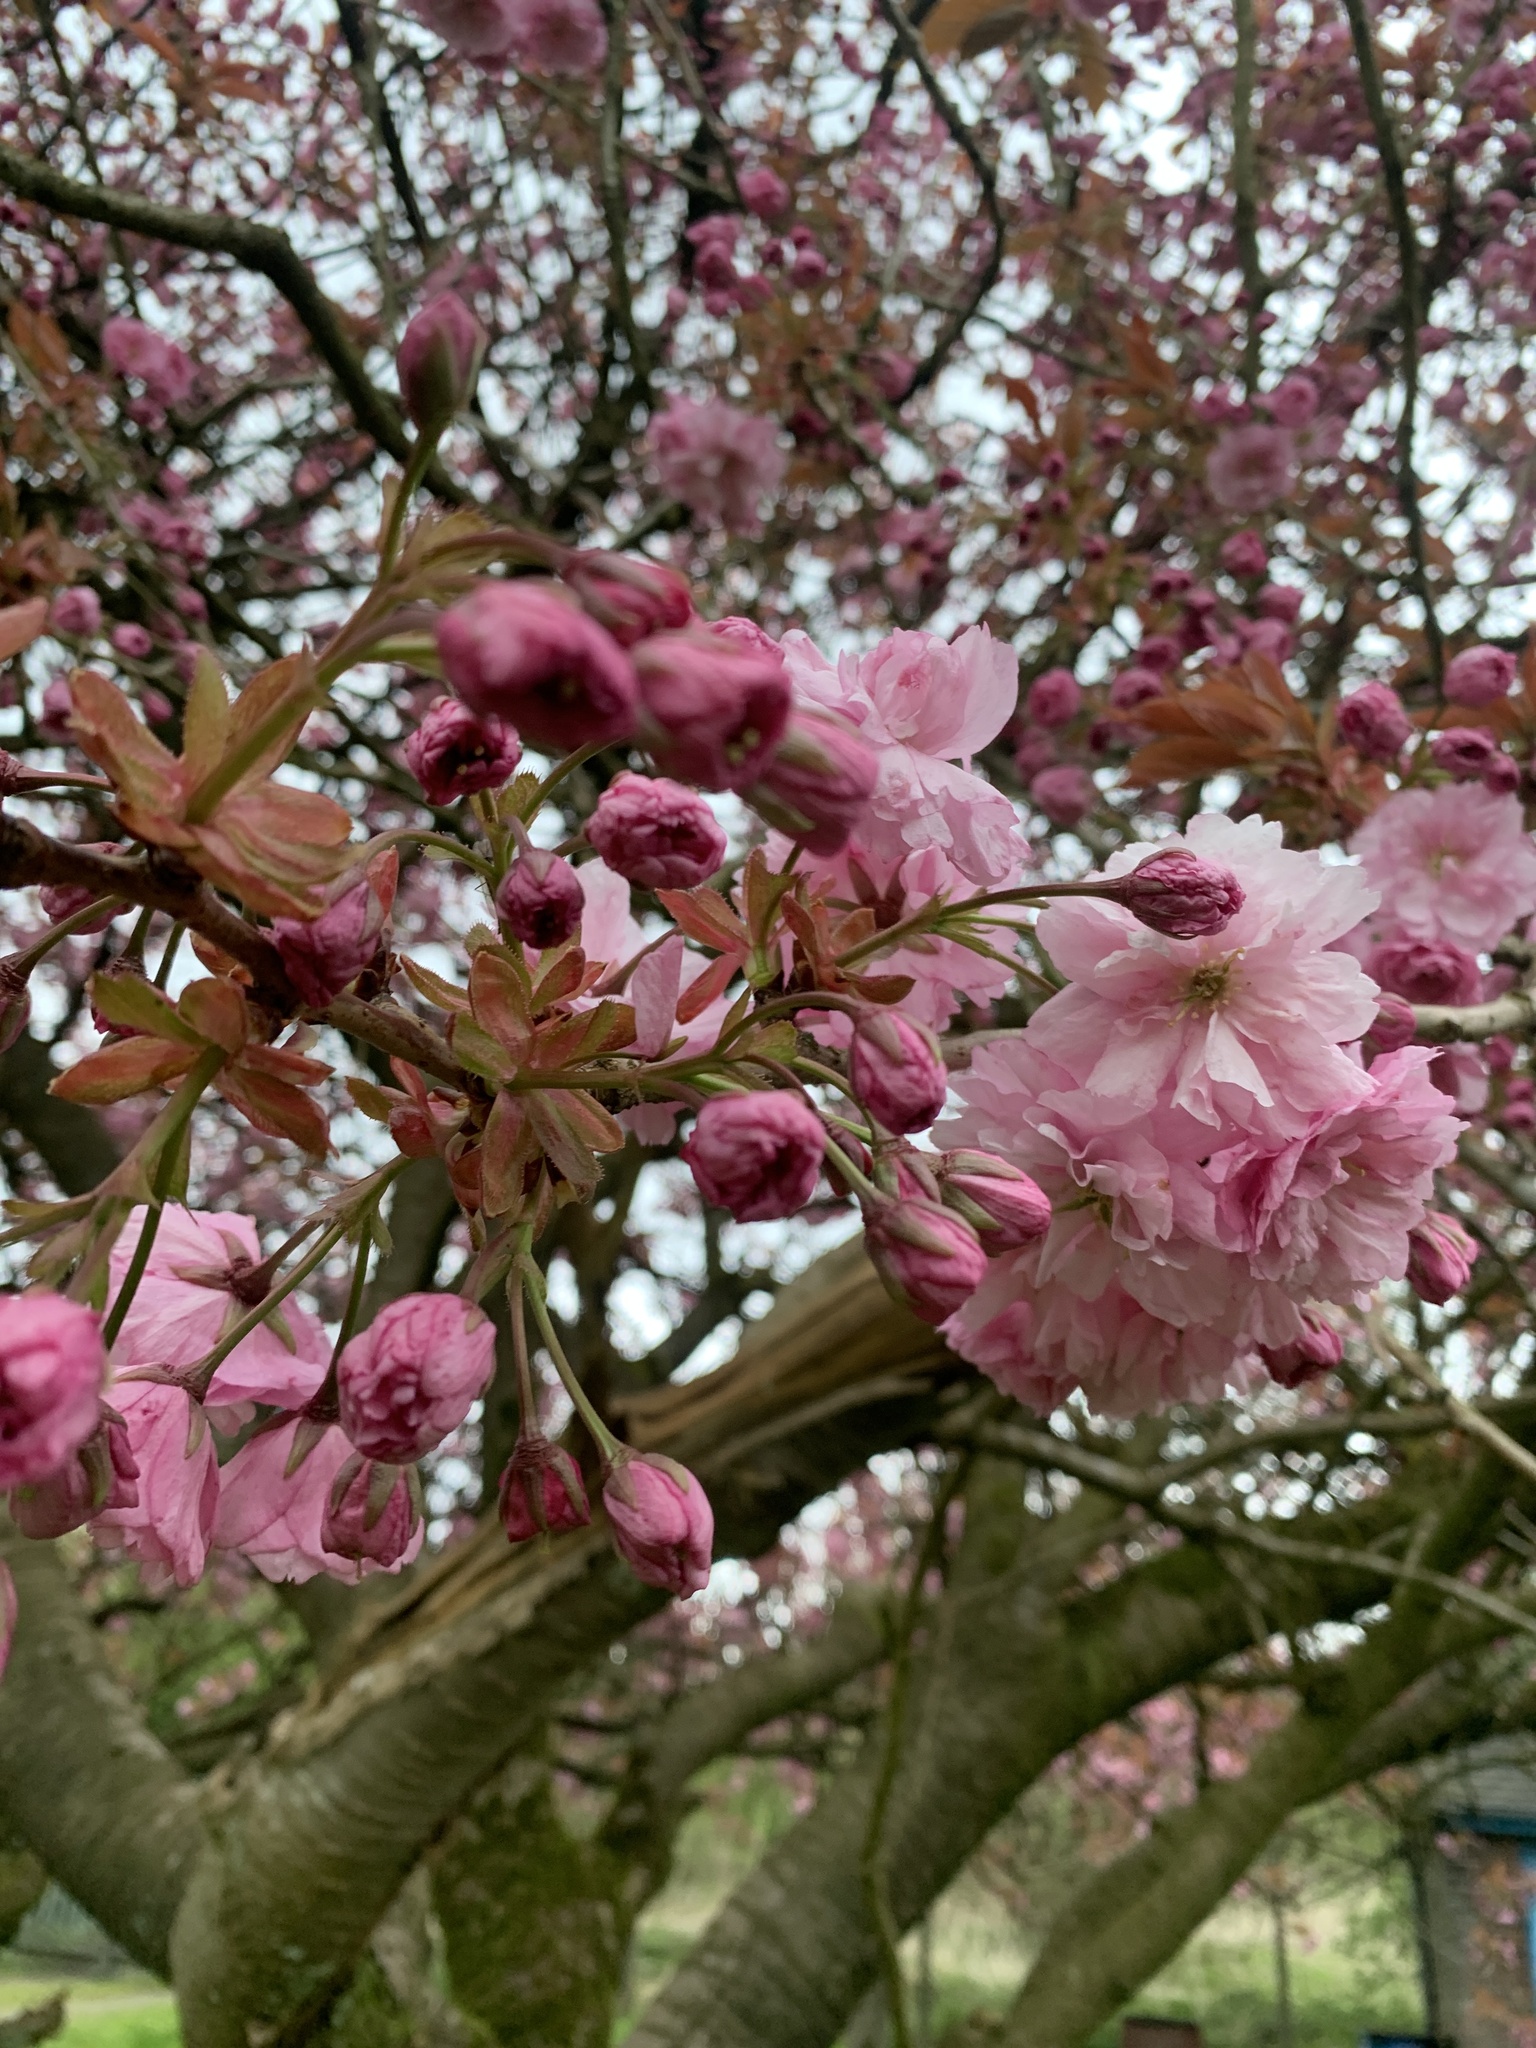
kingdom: Plantae
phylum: Tracheophyta
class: Magnoliopsida
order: Rosales
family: Rosaceae
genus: Prunus
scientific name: Prunus serrulata
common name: Japanese cherry
